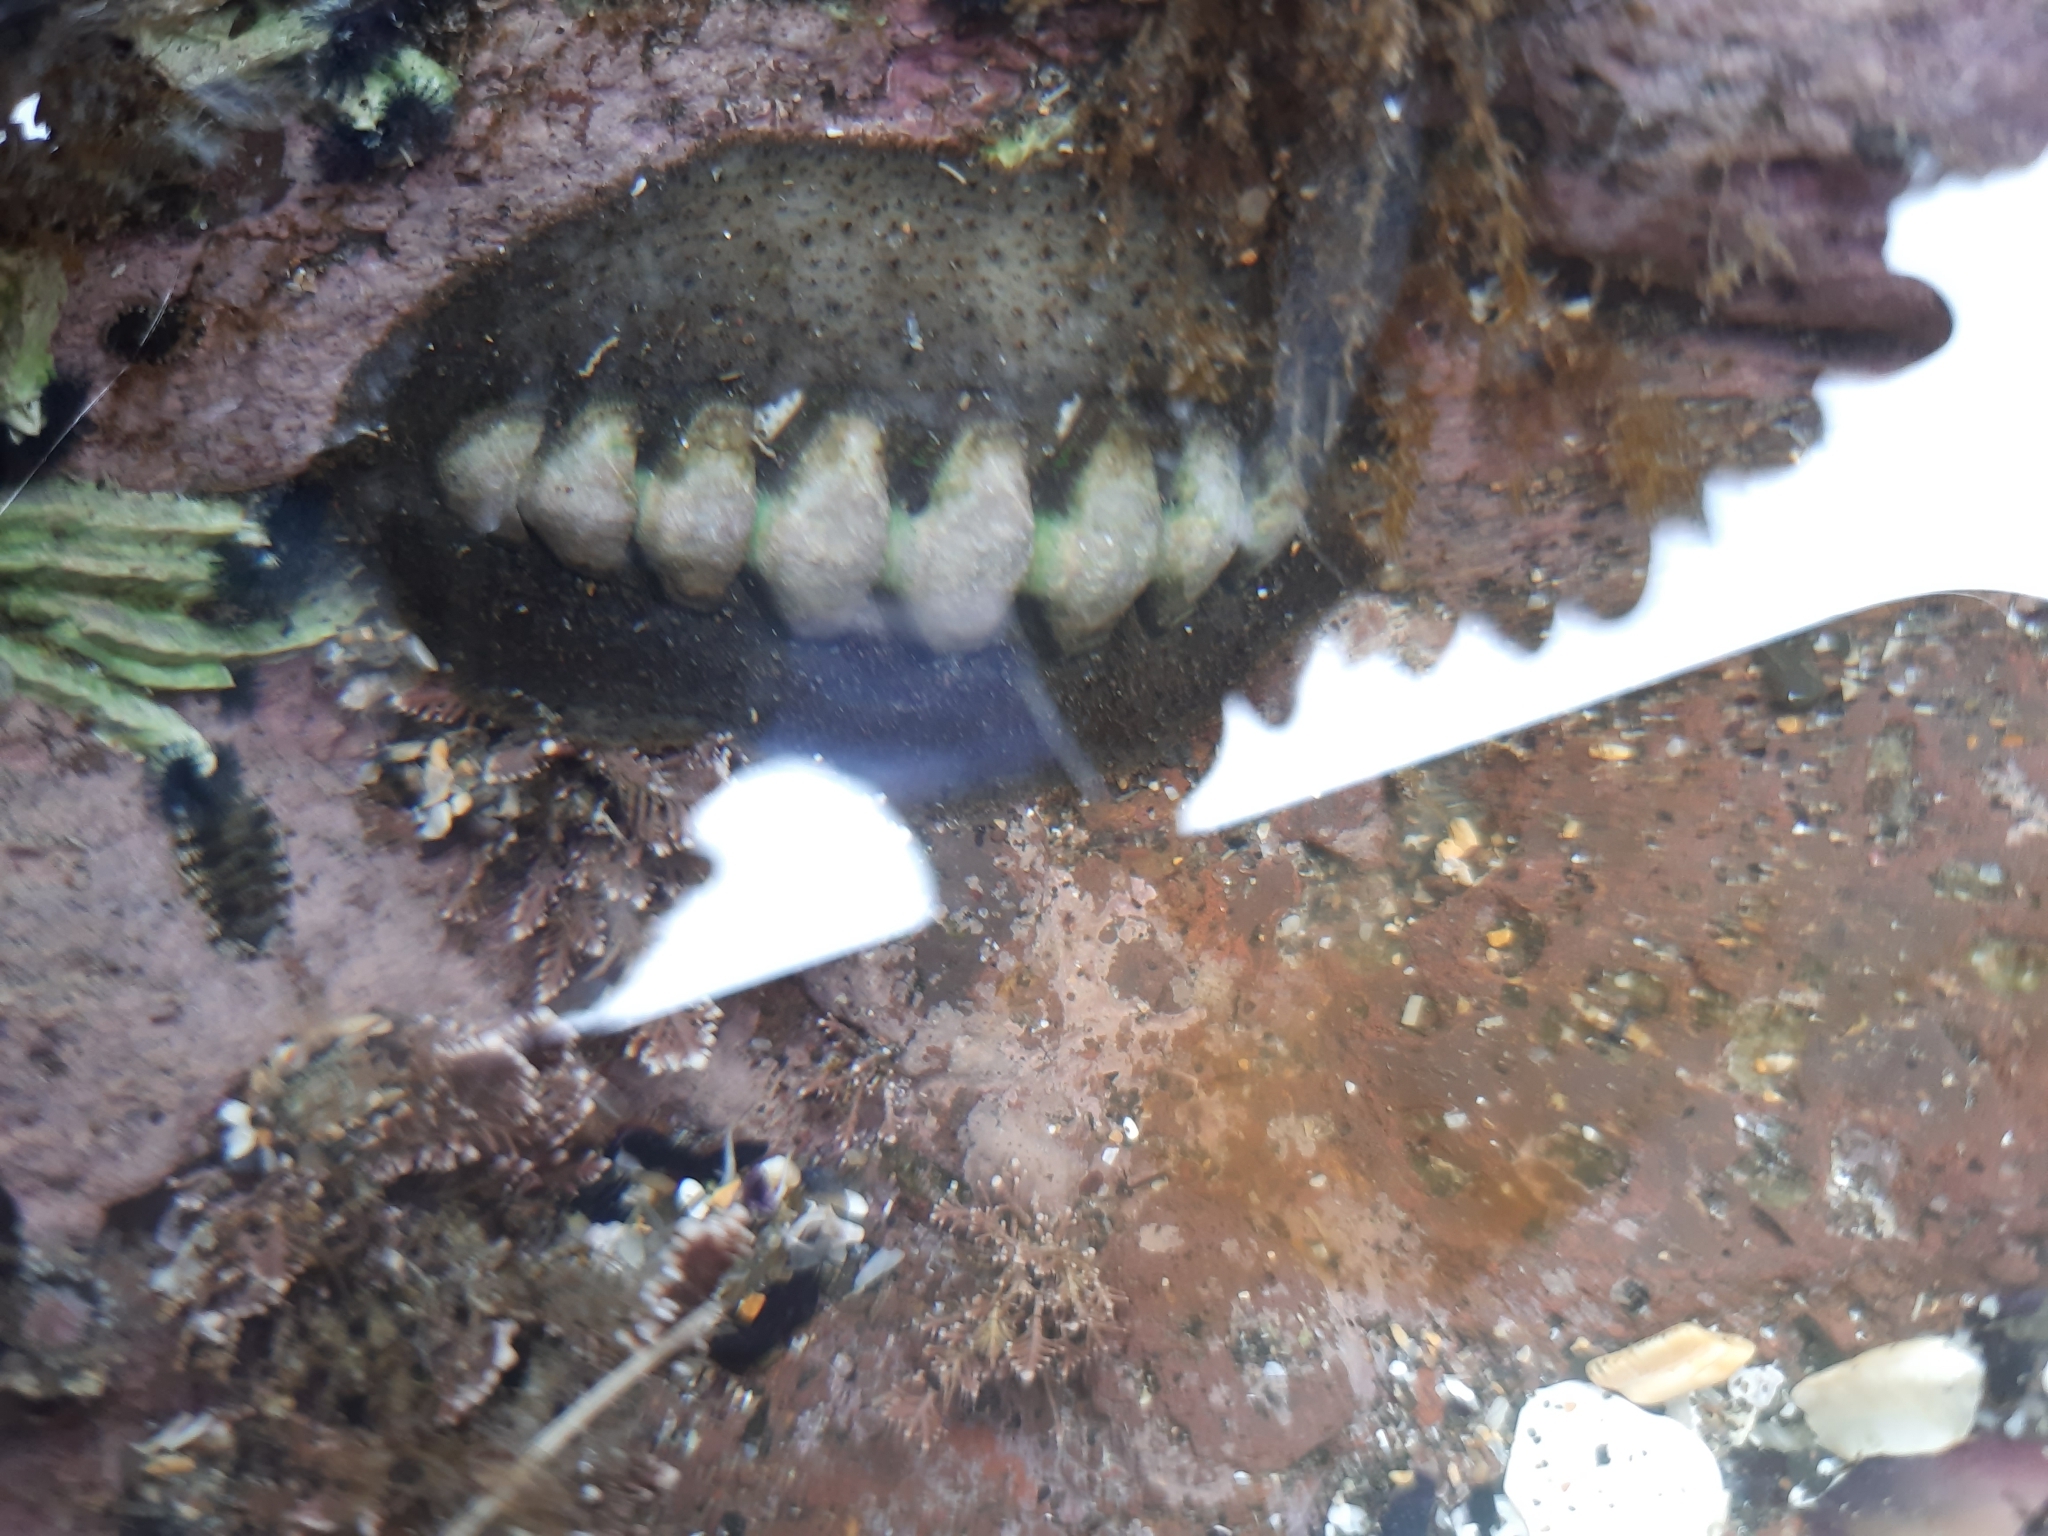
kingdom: Animalia
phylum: Mollusca
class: Polyplacophora
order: Chitonida
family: Mopaliidae
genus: Plaxiphora
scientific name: Plaxiphora obtecta
